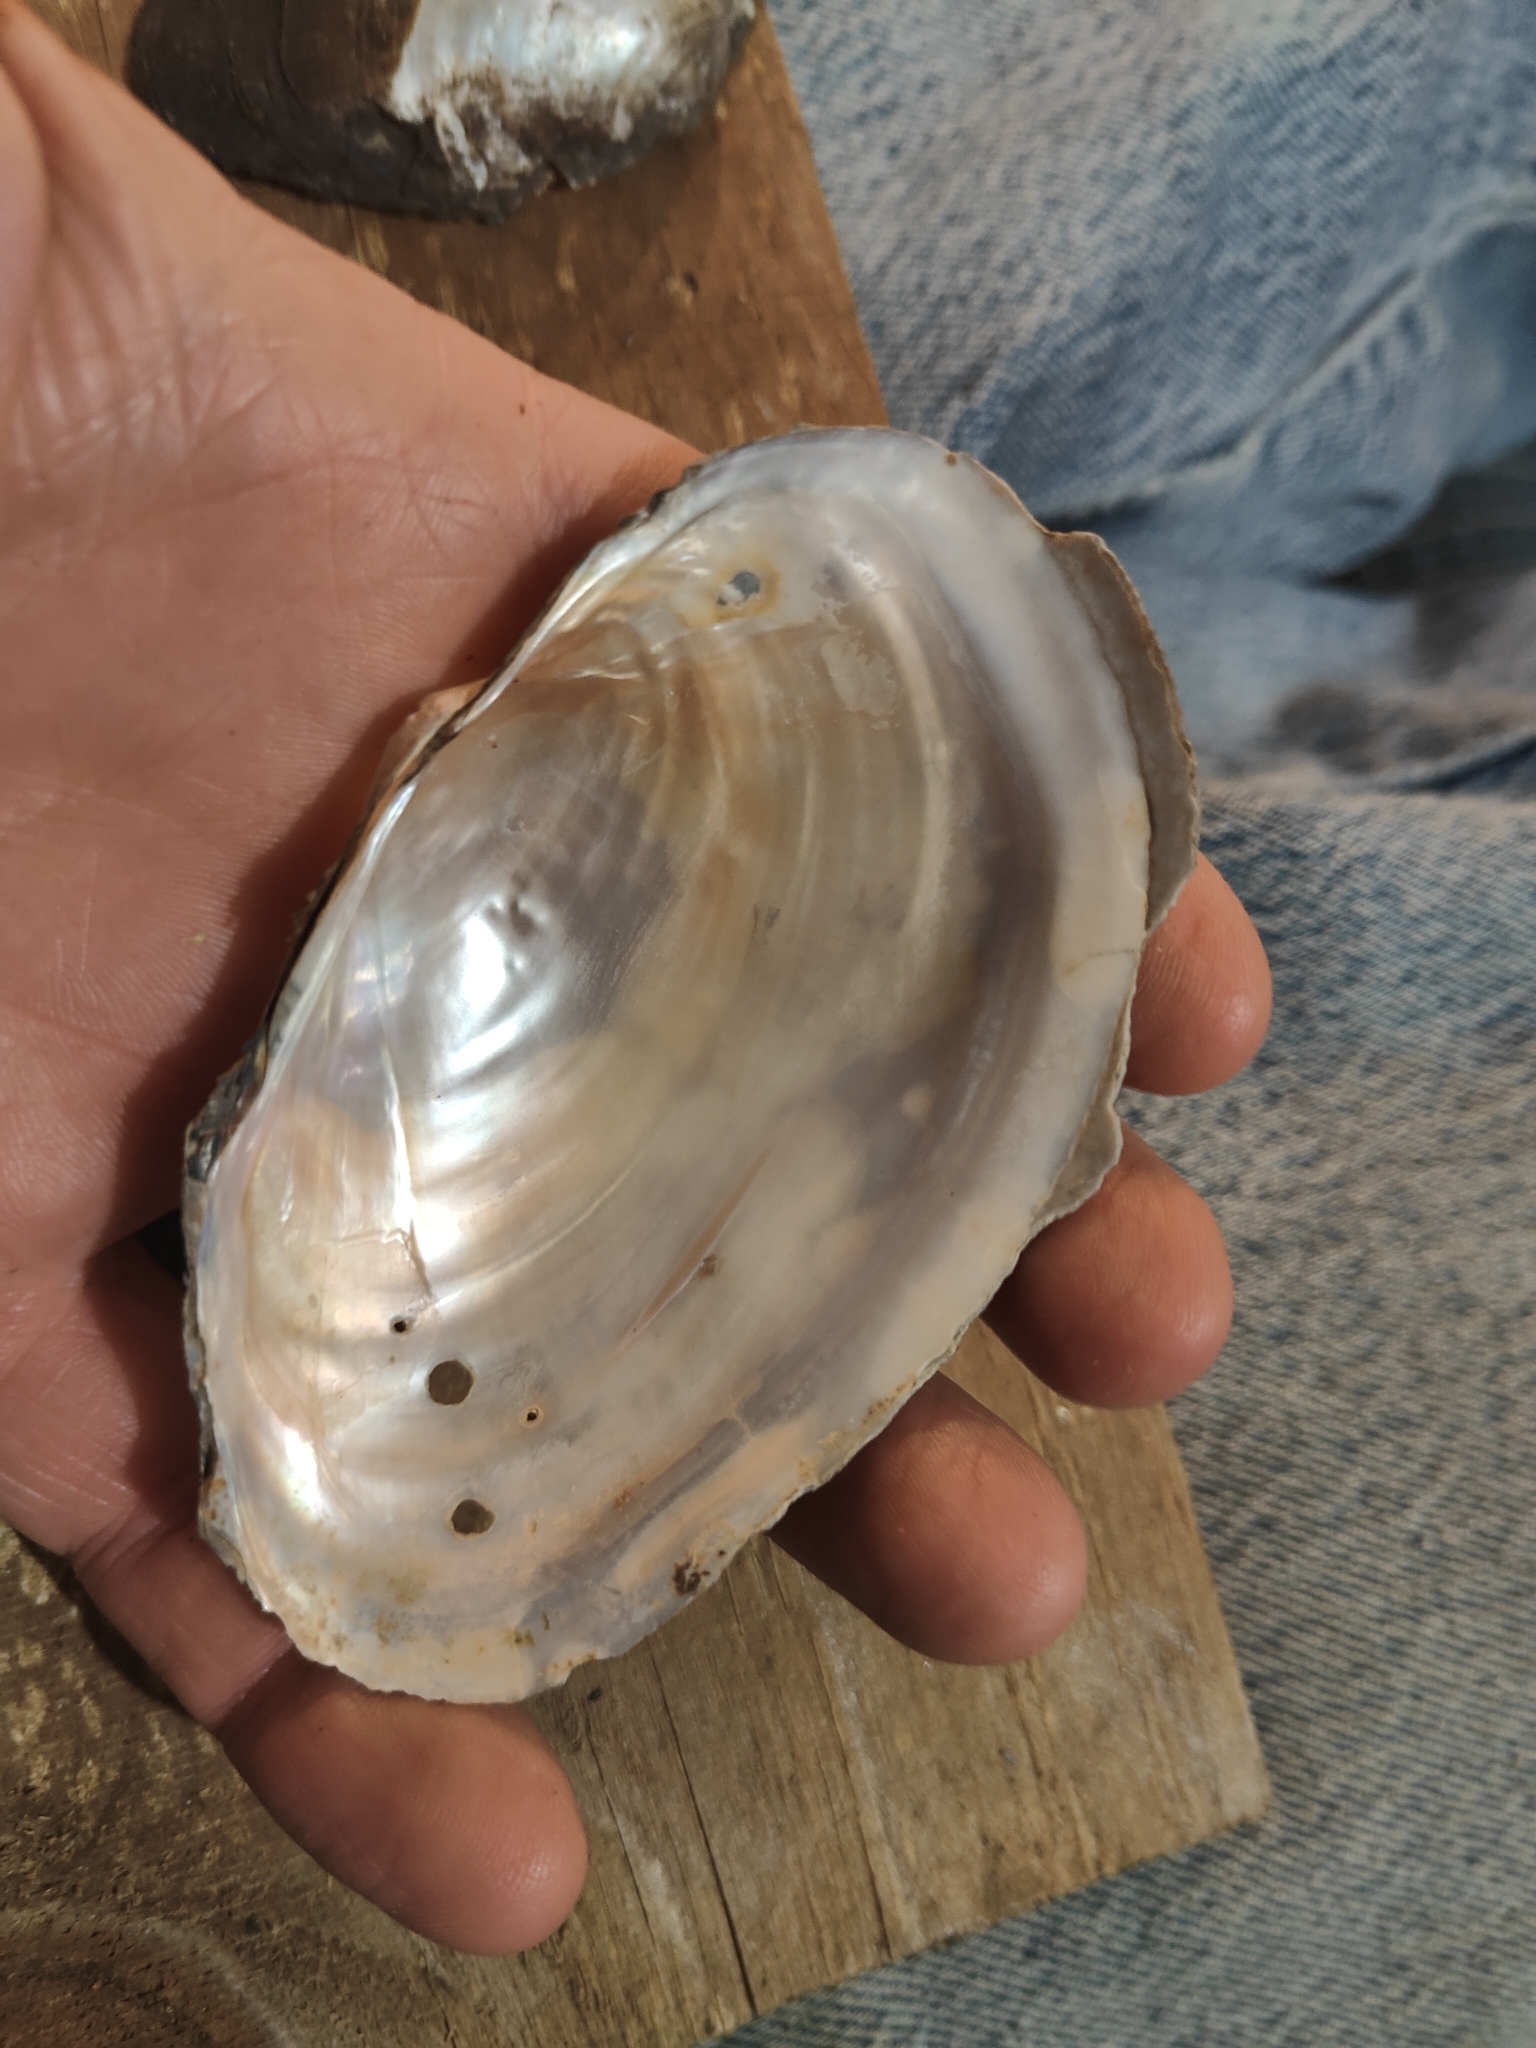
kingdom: Animalia
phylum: Mollusca
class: Bivalvia
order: Unionida
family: Unionidae
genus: Pyganodon
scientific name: Pyganodon grandis
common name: Giant floater
